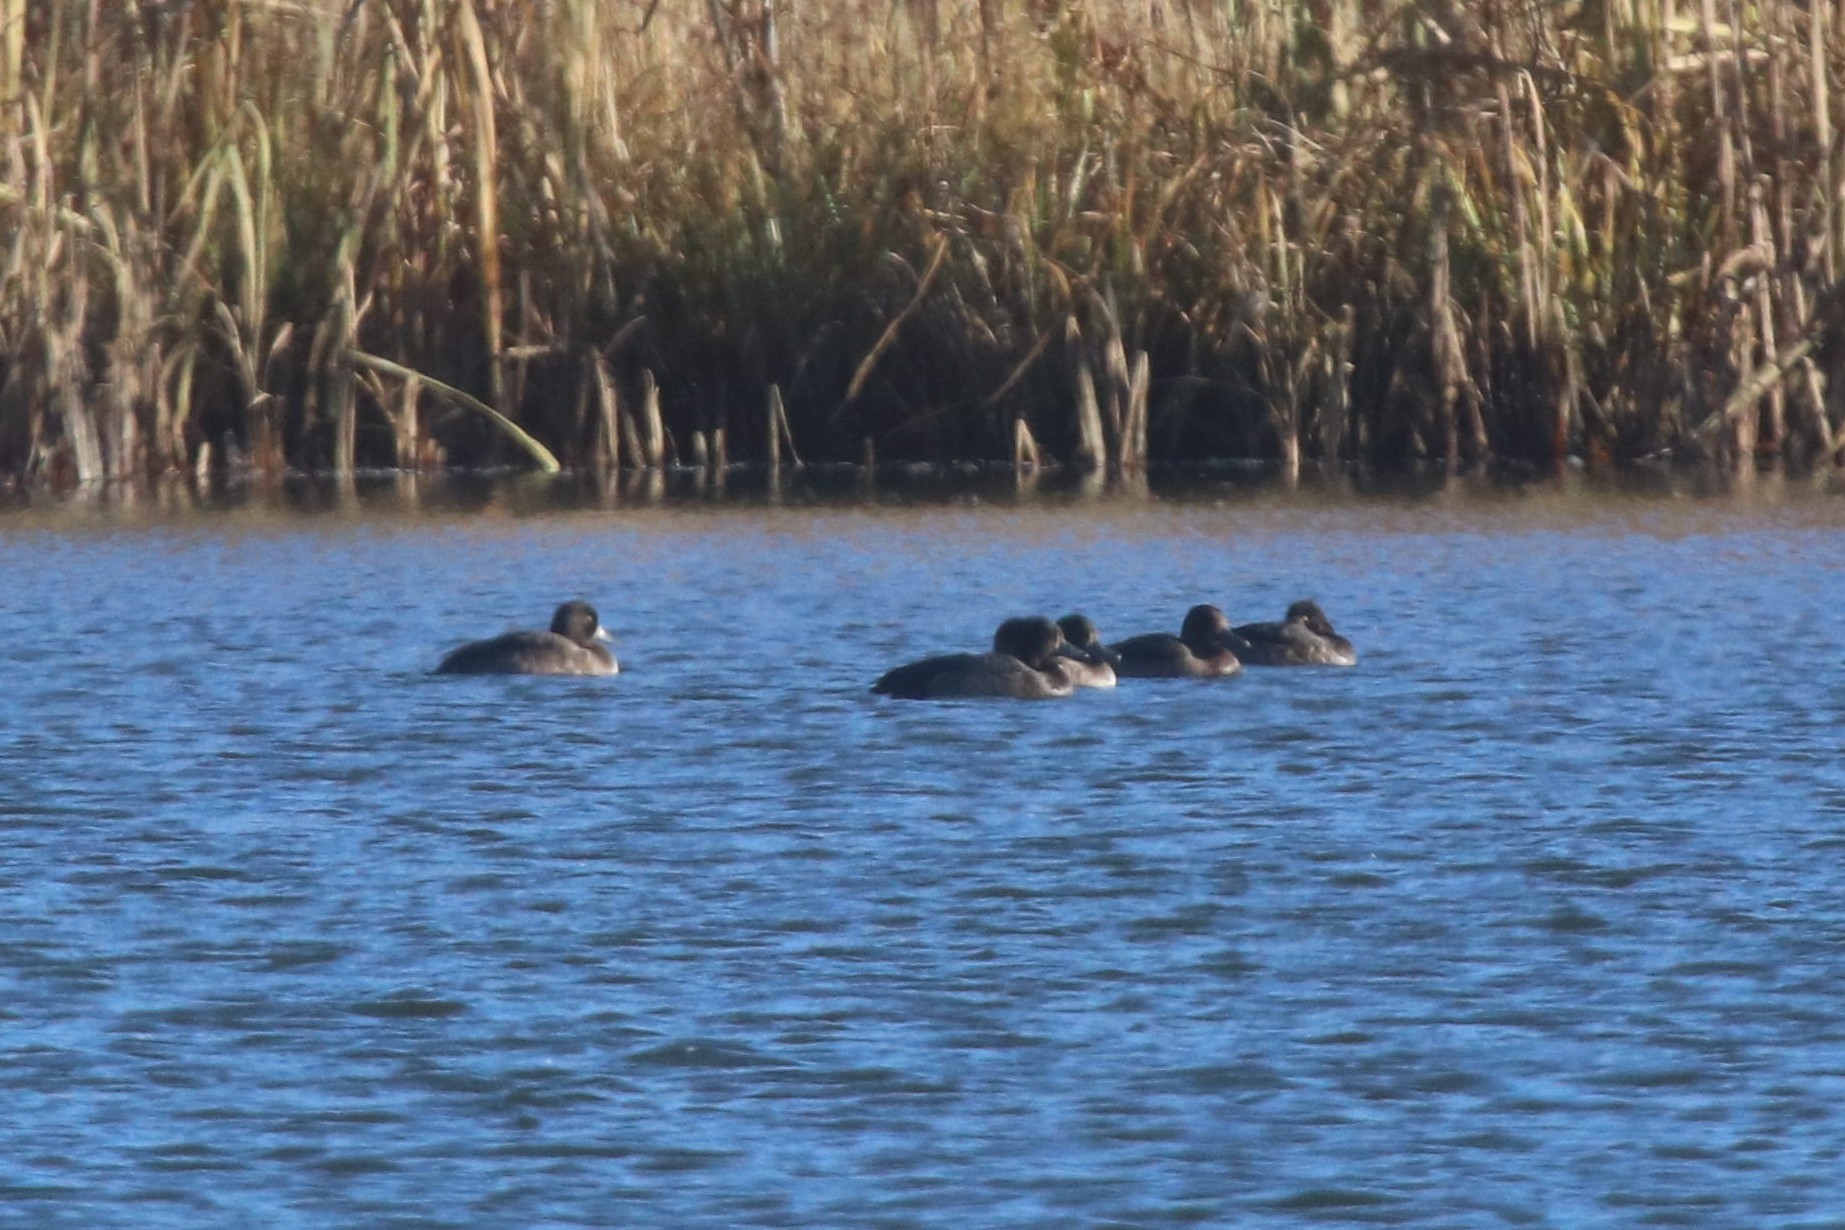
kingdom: Animalia
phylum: Chordata
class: Aves
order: Anseriformes
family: Anatidae
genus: Aythya
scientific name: Aythya fuligula
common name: Tufted duck
